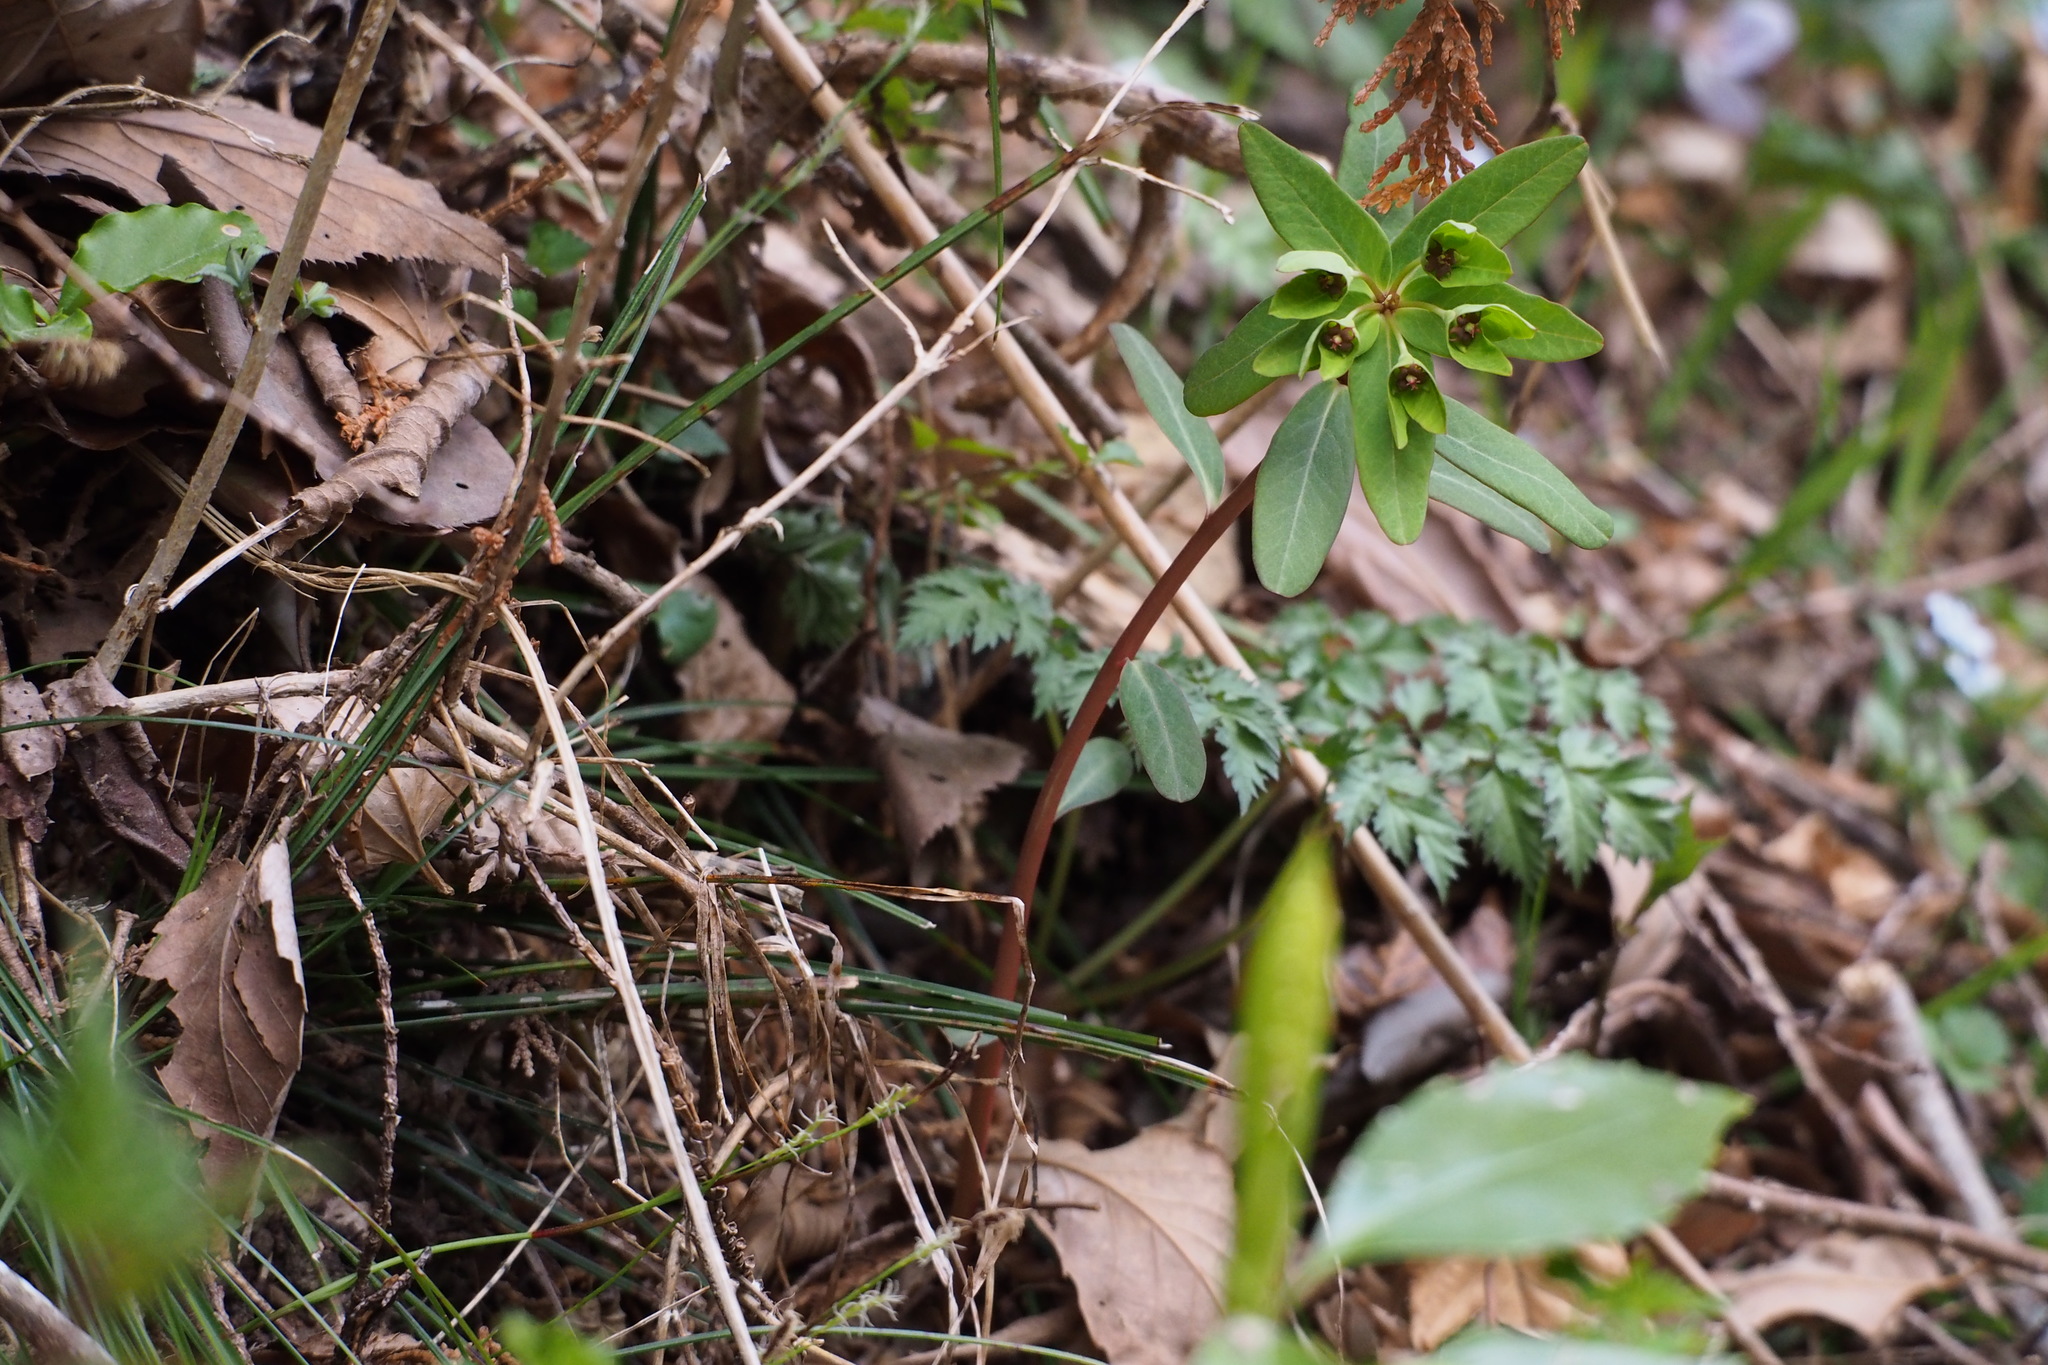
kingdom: Plantae
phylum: Tracheophyta
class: Magnoliopsida
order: Malpighiales
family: Euphorbiaceae
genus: Euphorbia
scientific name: Euphorbia sieboldiana
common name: Siebold's spurge
